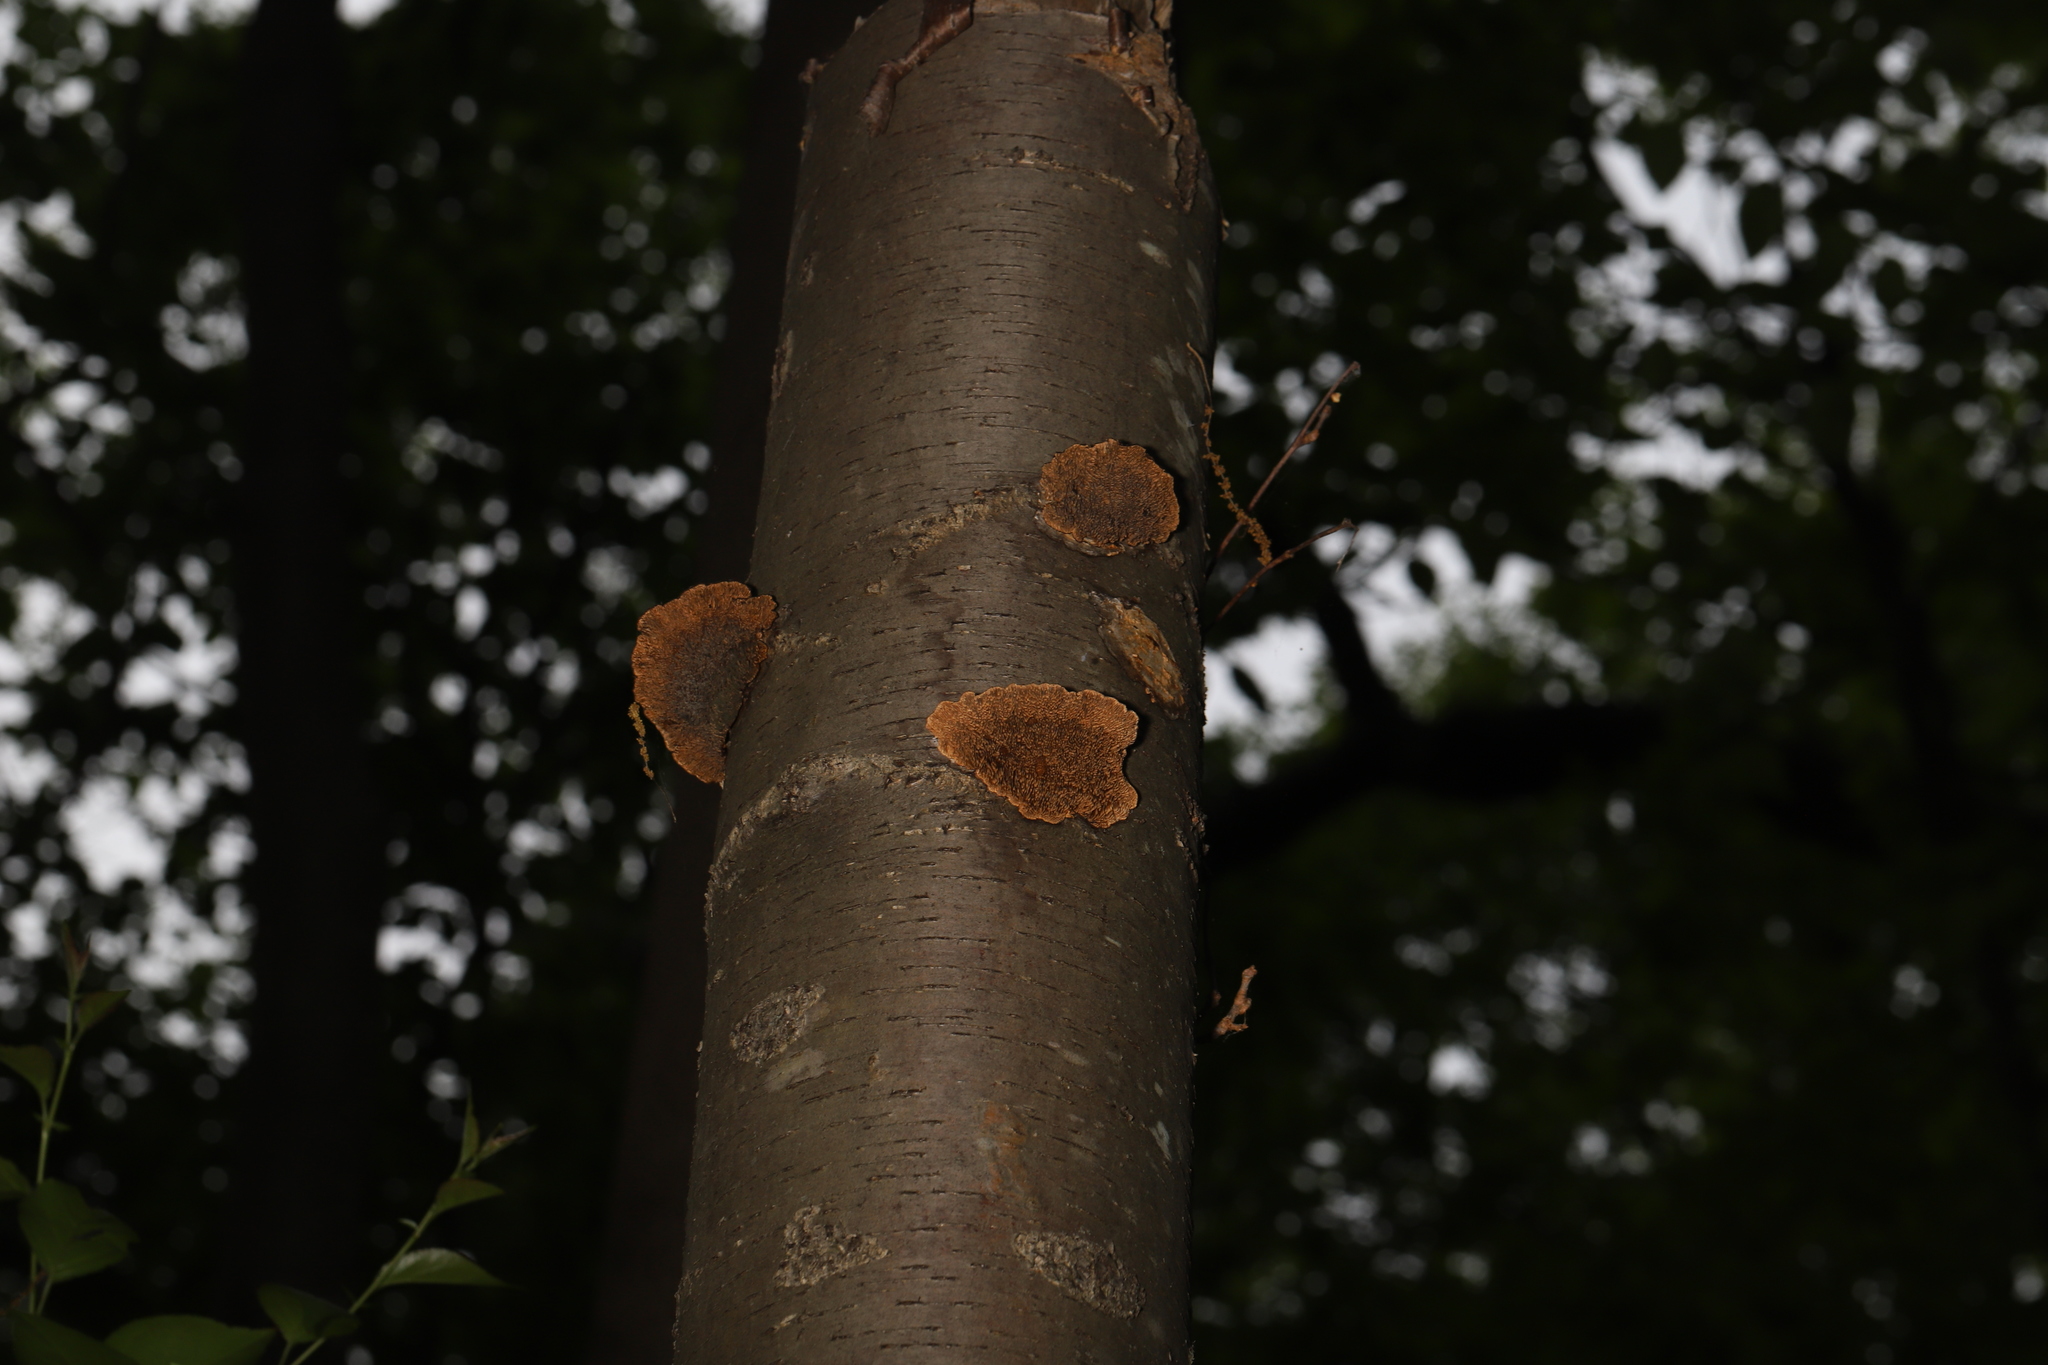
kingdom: Fungi
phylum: Basidiomycota
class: Agaricomycetes
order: Polyporales
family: Polyporaceae
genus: Daedaleopsis
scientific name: Daedaleopsis confragosa
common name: Blushing bracket
